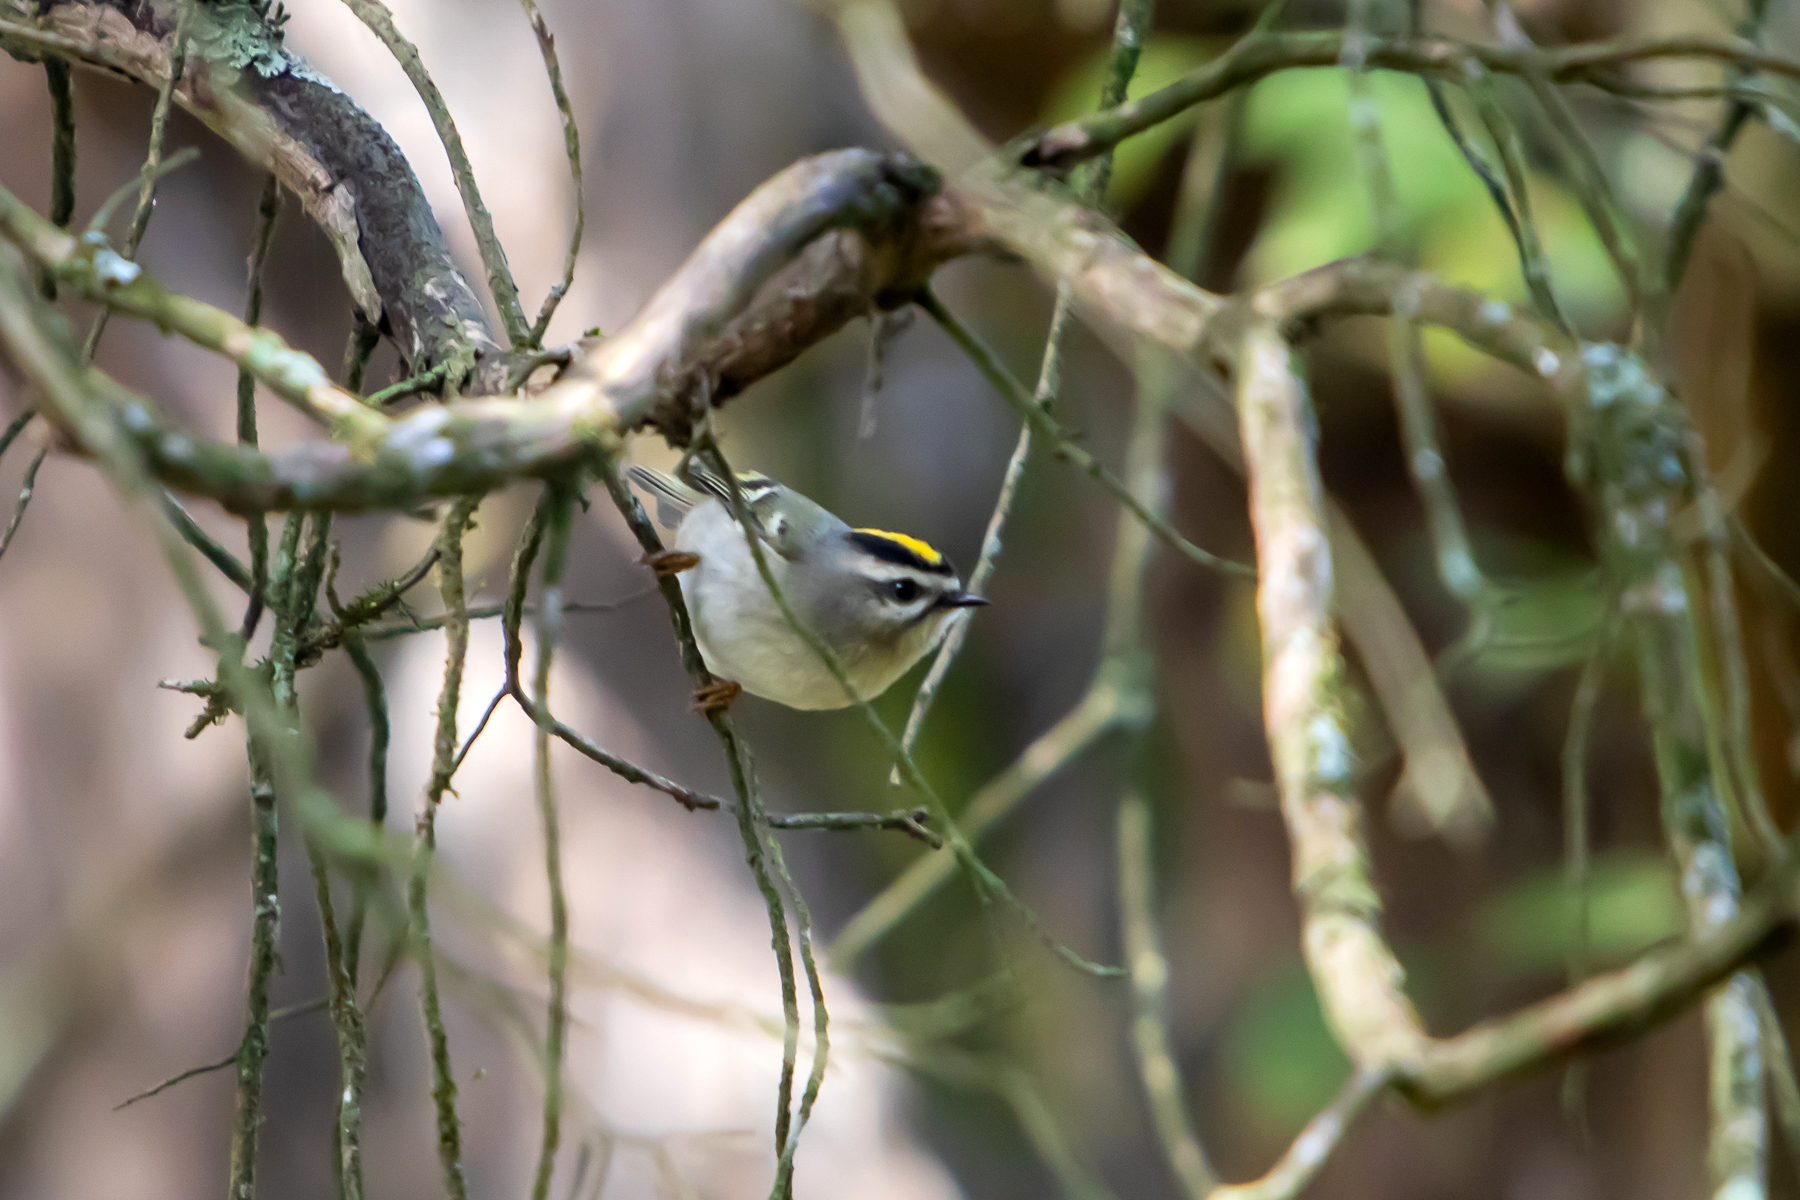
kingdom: Animalia
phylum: Chordata
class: Aves
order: Passeriformes
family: Regulidae
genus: Regulus
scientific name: Regulus satrapa
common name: Golden-crowned kinglet
